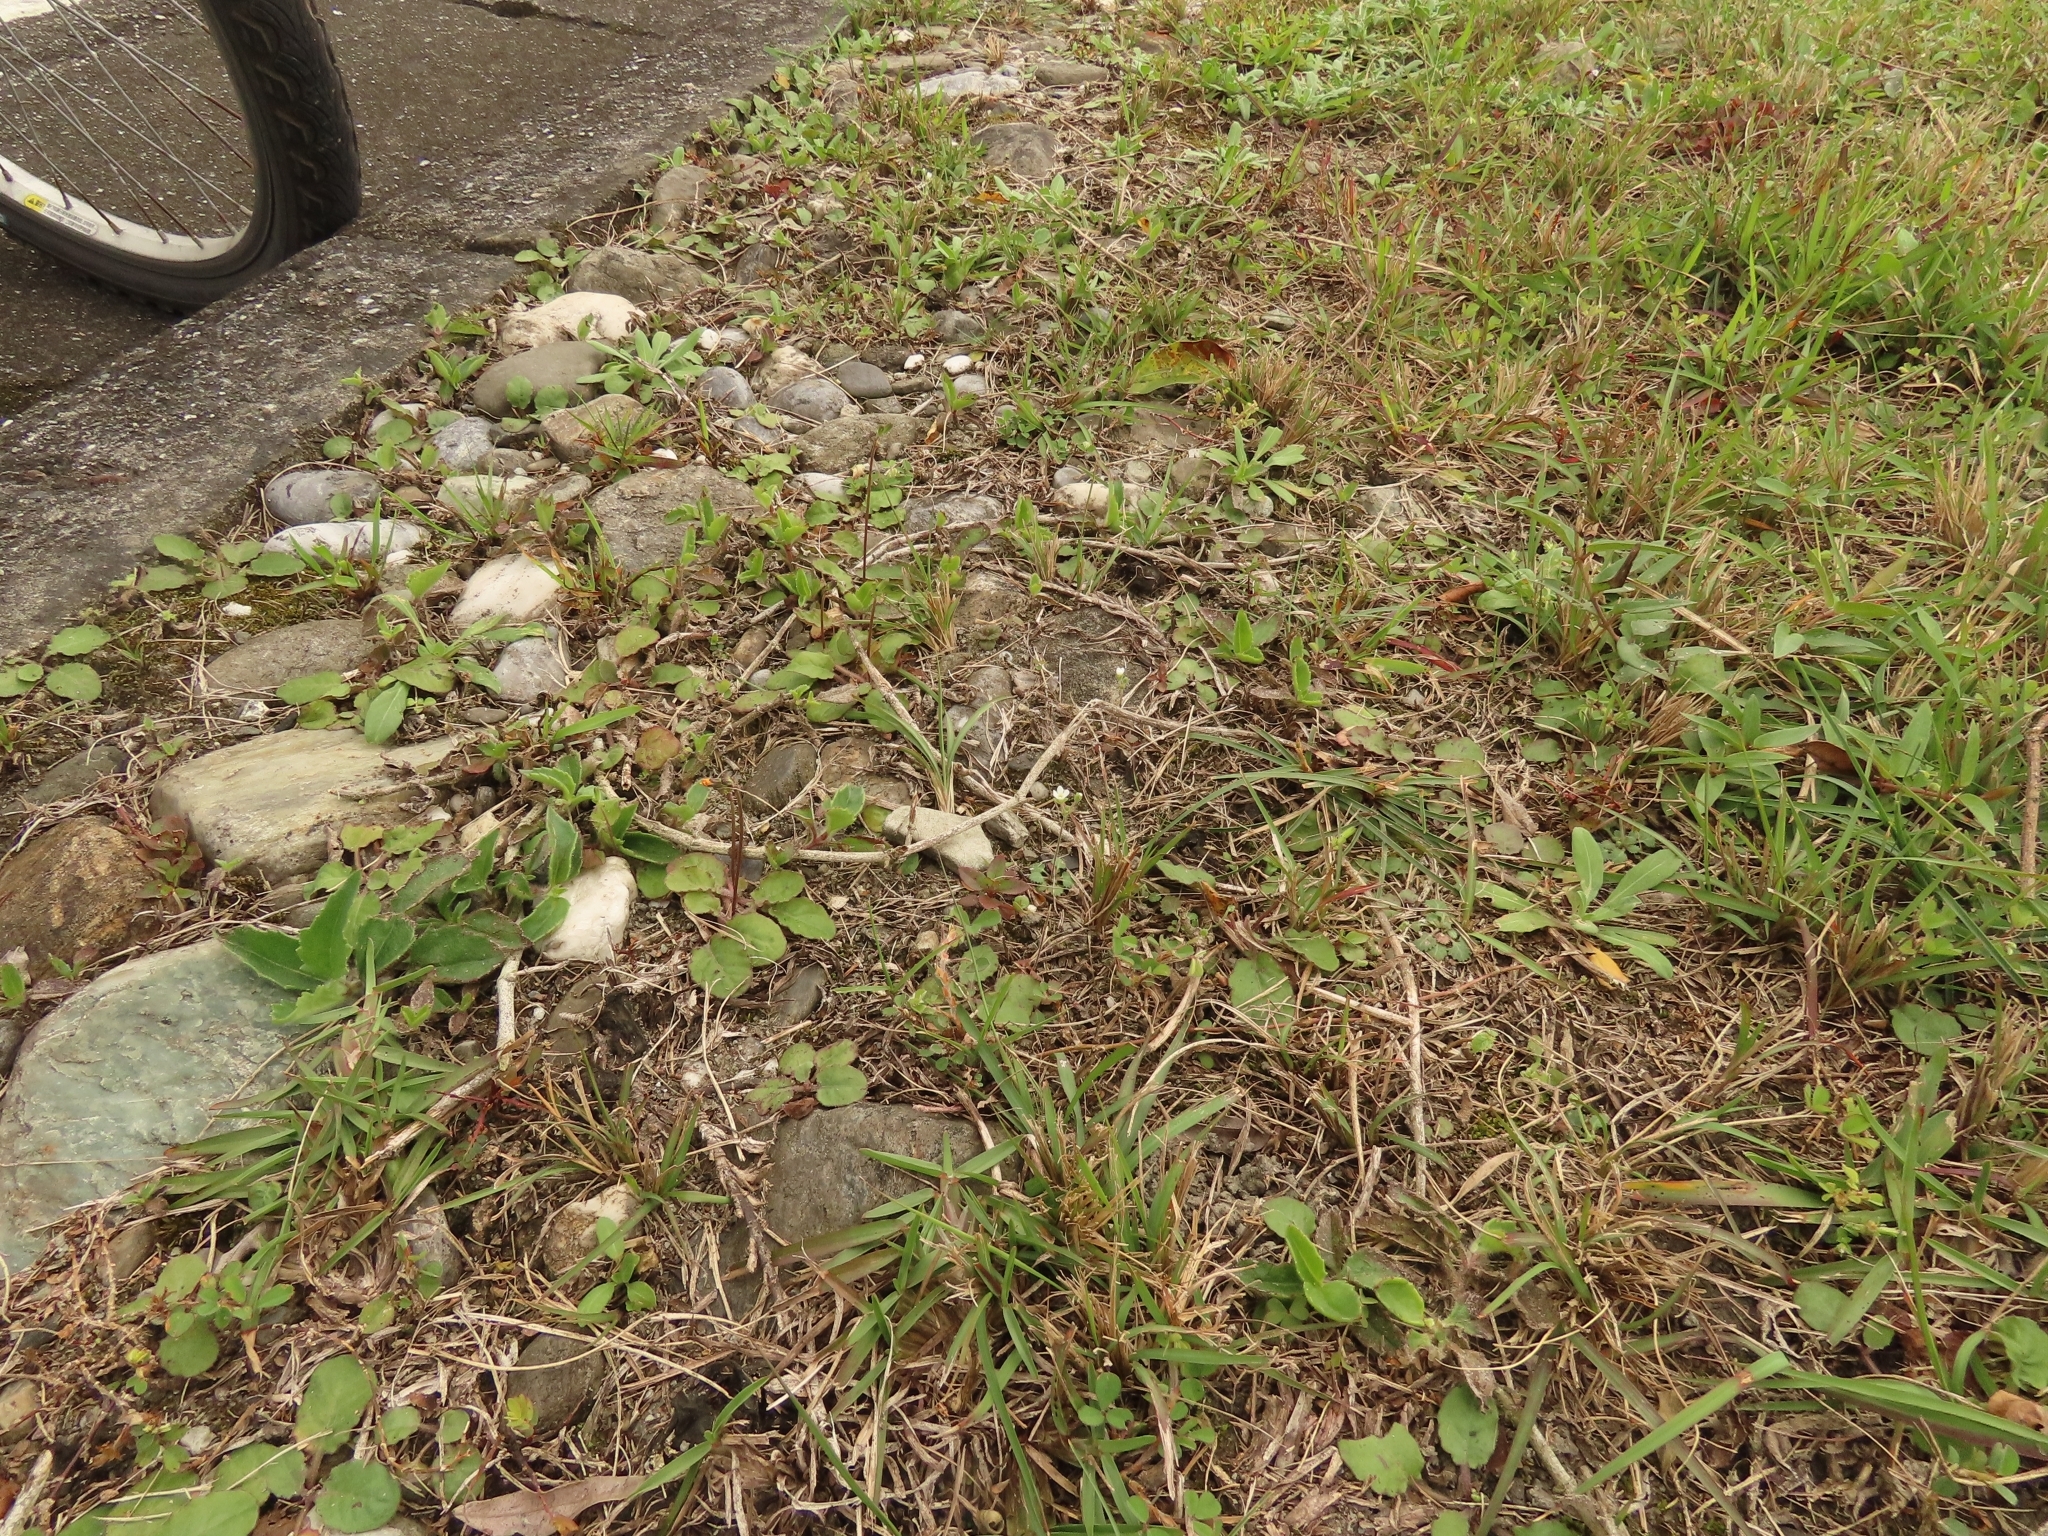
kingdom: Plantae
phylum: Tracheophyta
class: Magnoliopsida
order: Ericales
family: Primulaceae
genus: Androsace
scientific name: Androsace umbellata
